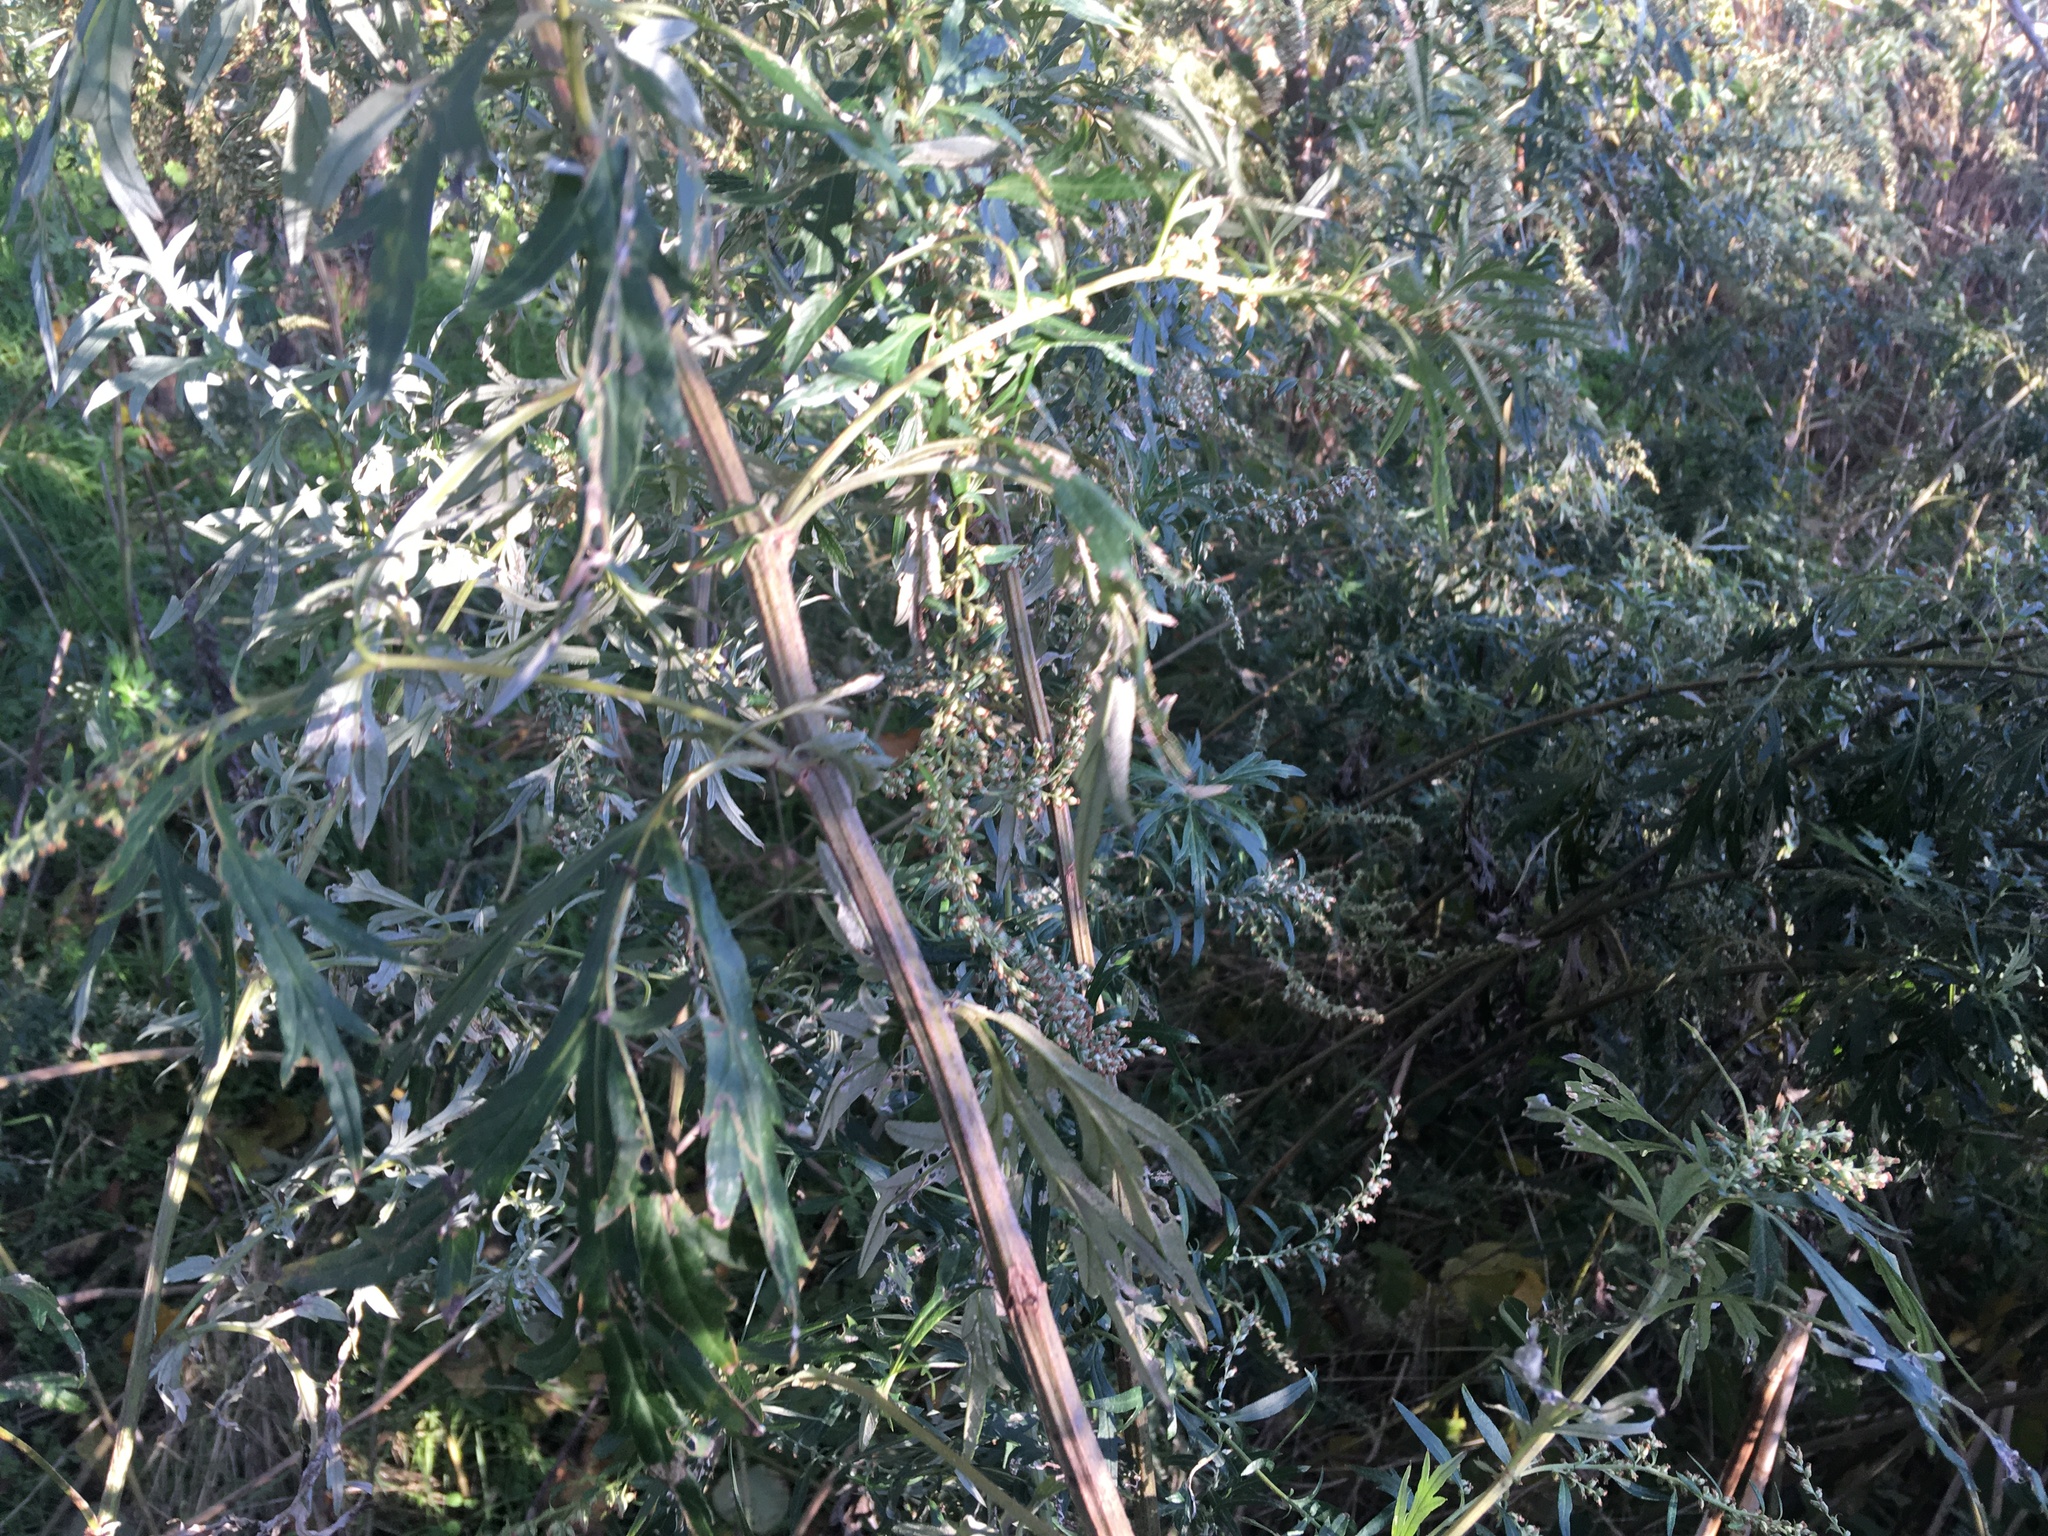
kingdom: Plantae
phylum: Tracheophyta
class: Magnoliopsida
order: Asterales
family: Asteraceae
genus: Artemisia
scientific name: Artemisia vulgaris
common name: Mugwort
